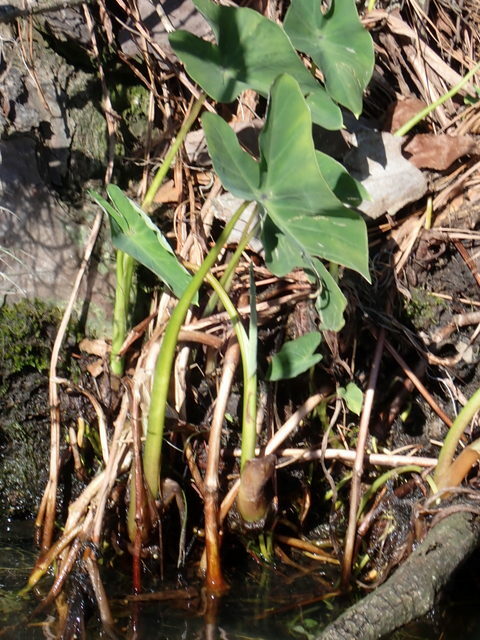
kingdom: Plantae
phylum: Tracheophyta
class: Liliopsida
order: Alismatales
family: Araceae
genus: Colocasia
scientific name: Colocasia esculenta
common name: Taro
